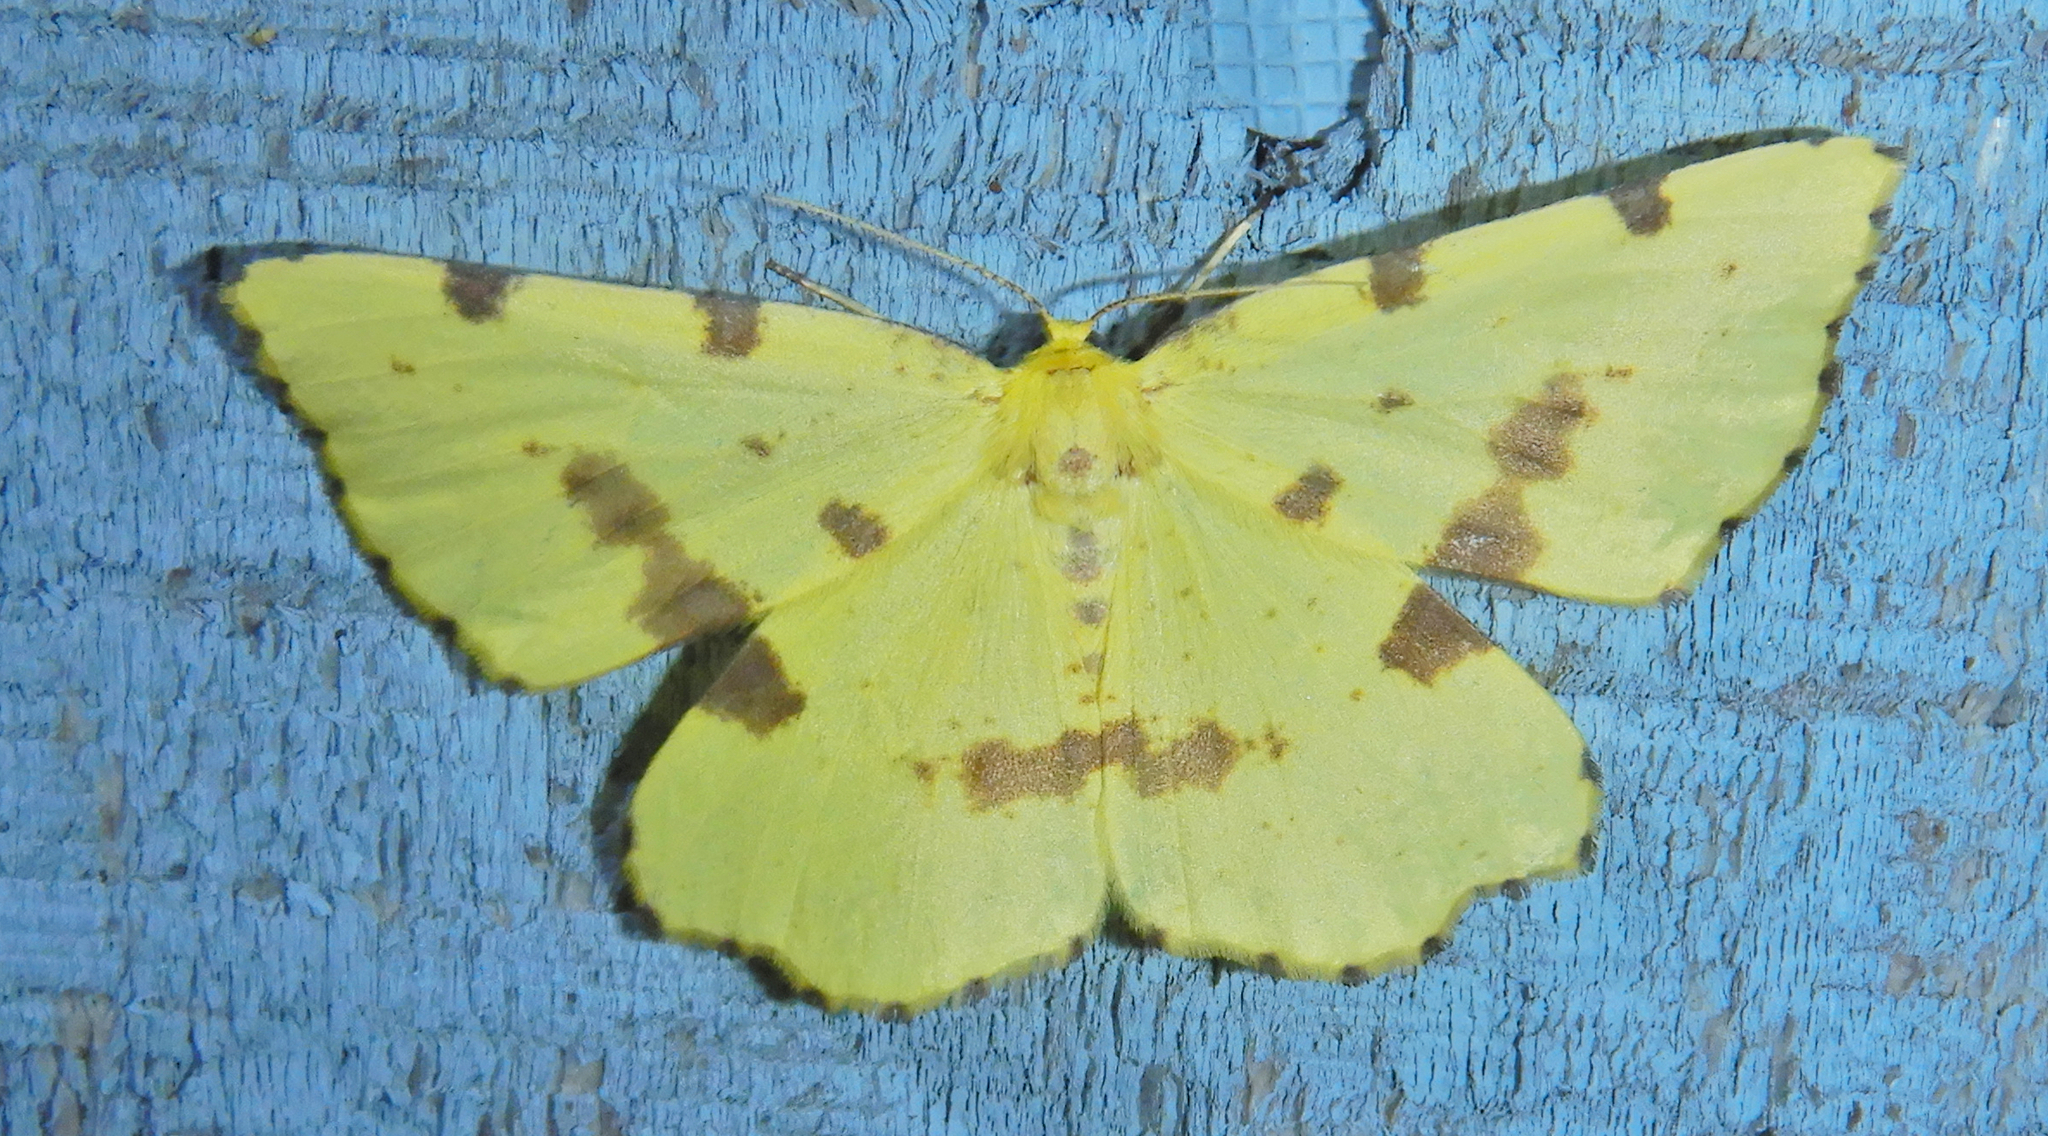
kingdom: Animalia
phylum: Arthropoda
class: Insecta
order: Lepidoptera
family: Geometridae
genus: Xanthotype
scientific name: Xanthotype
